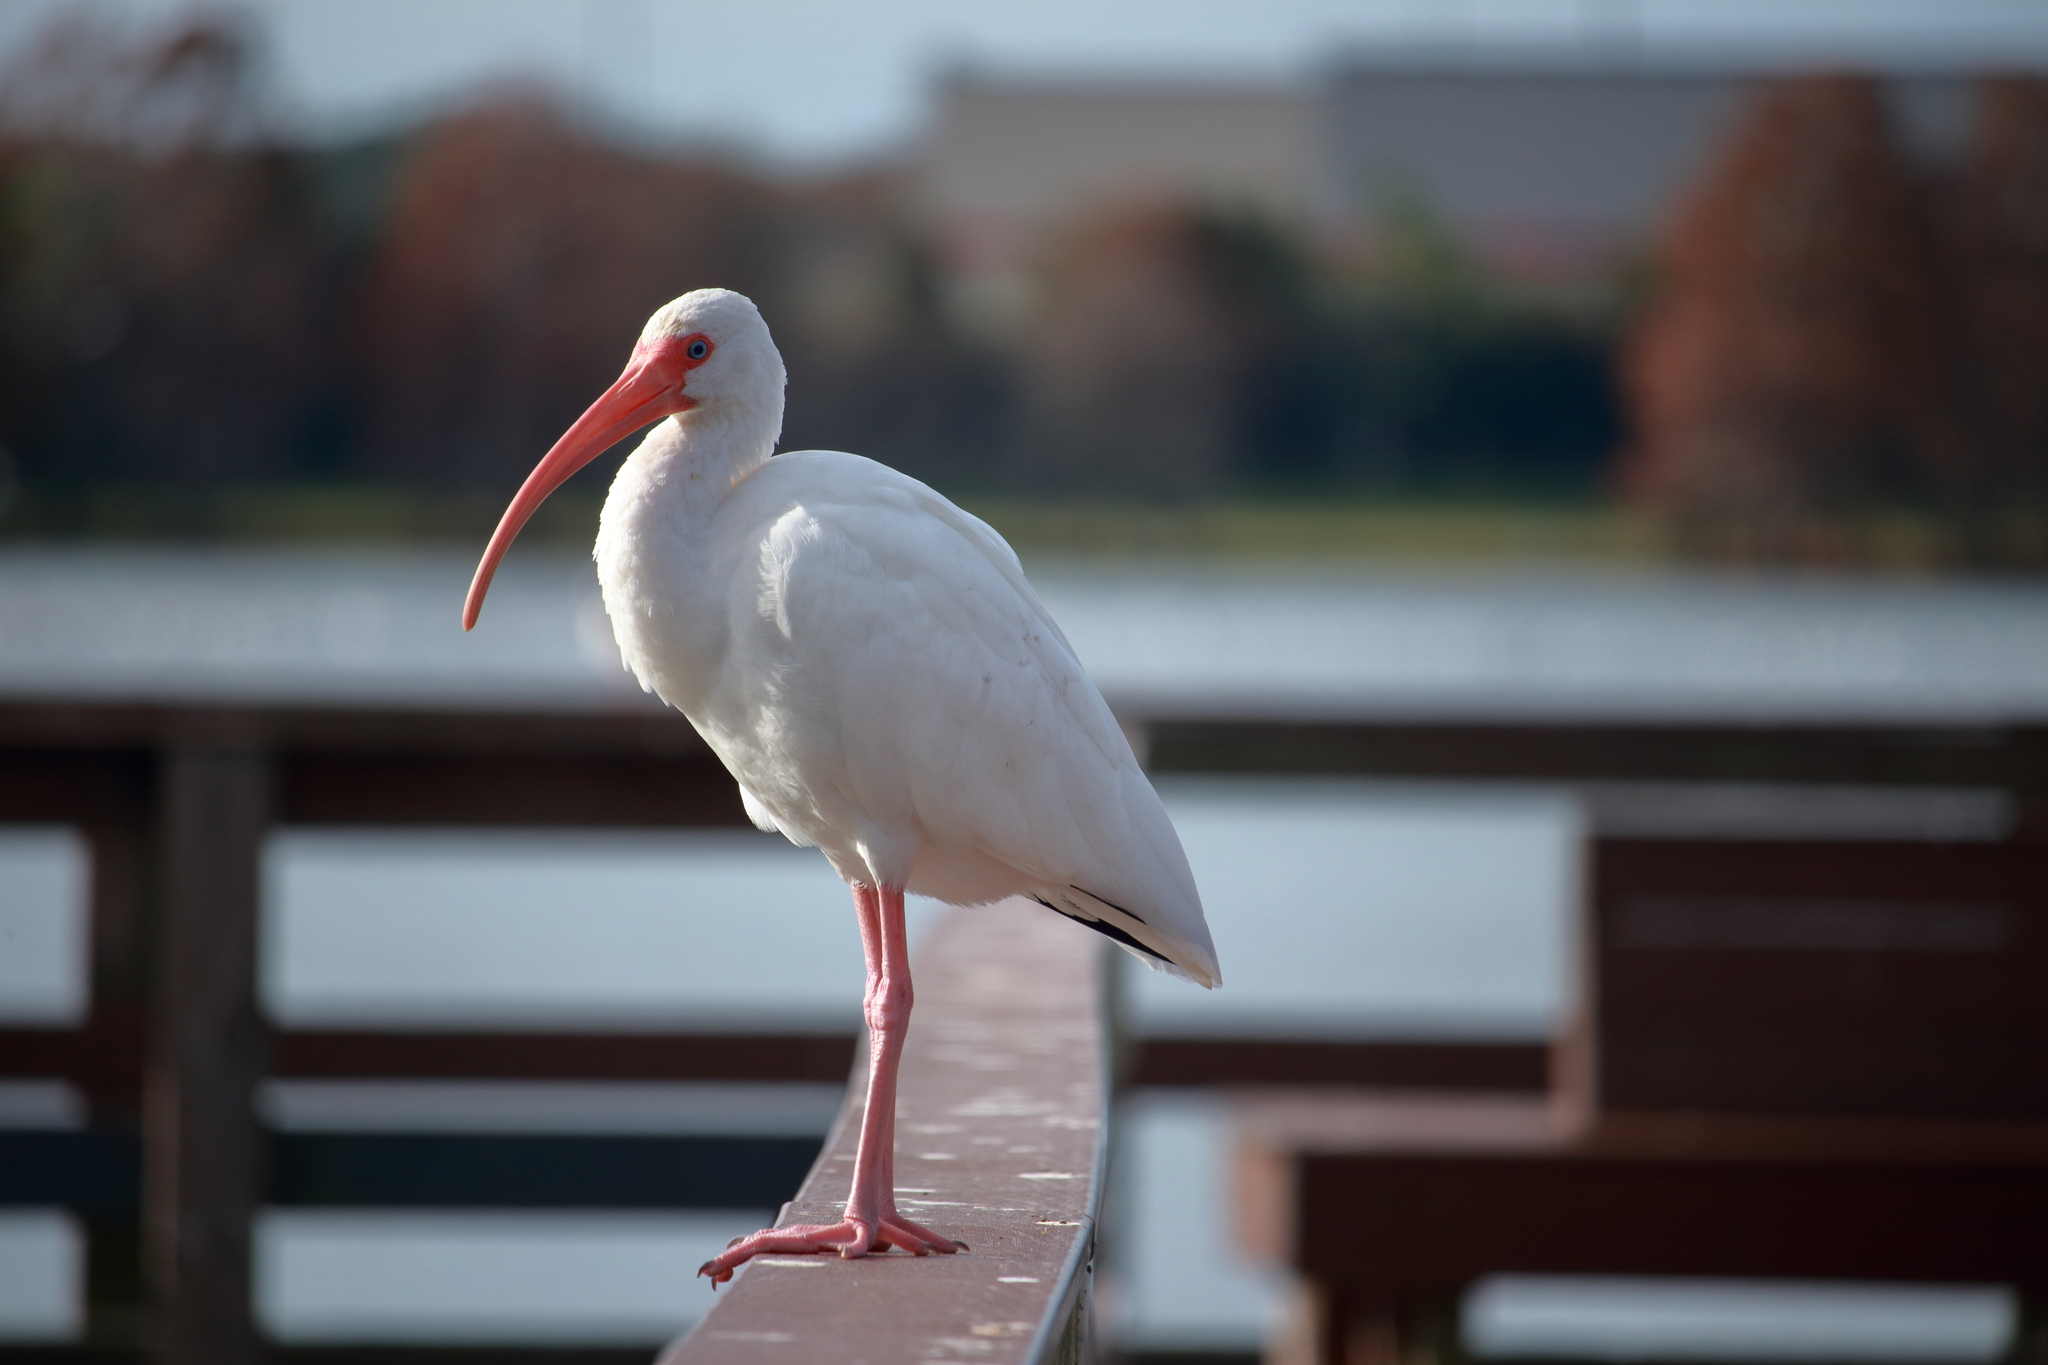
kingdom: Animalia
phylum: Chordata
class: Aves
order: Pelecaniformes
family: Threskiornithidae
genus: Eudocimus
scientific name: Eudocimus albus
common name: White ibis
